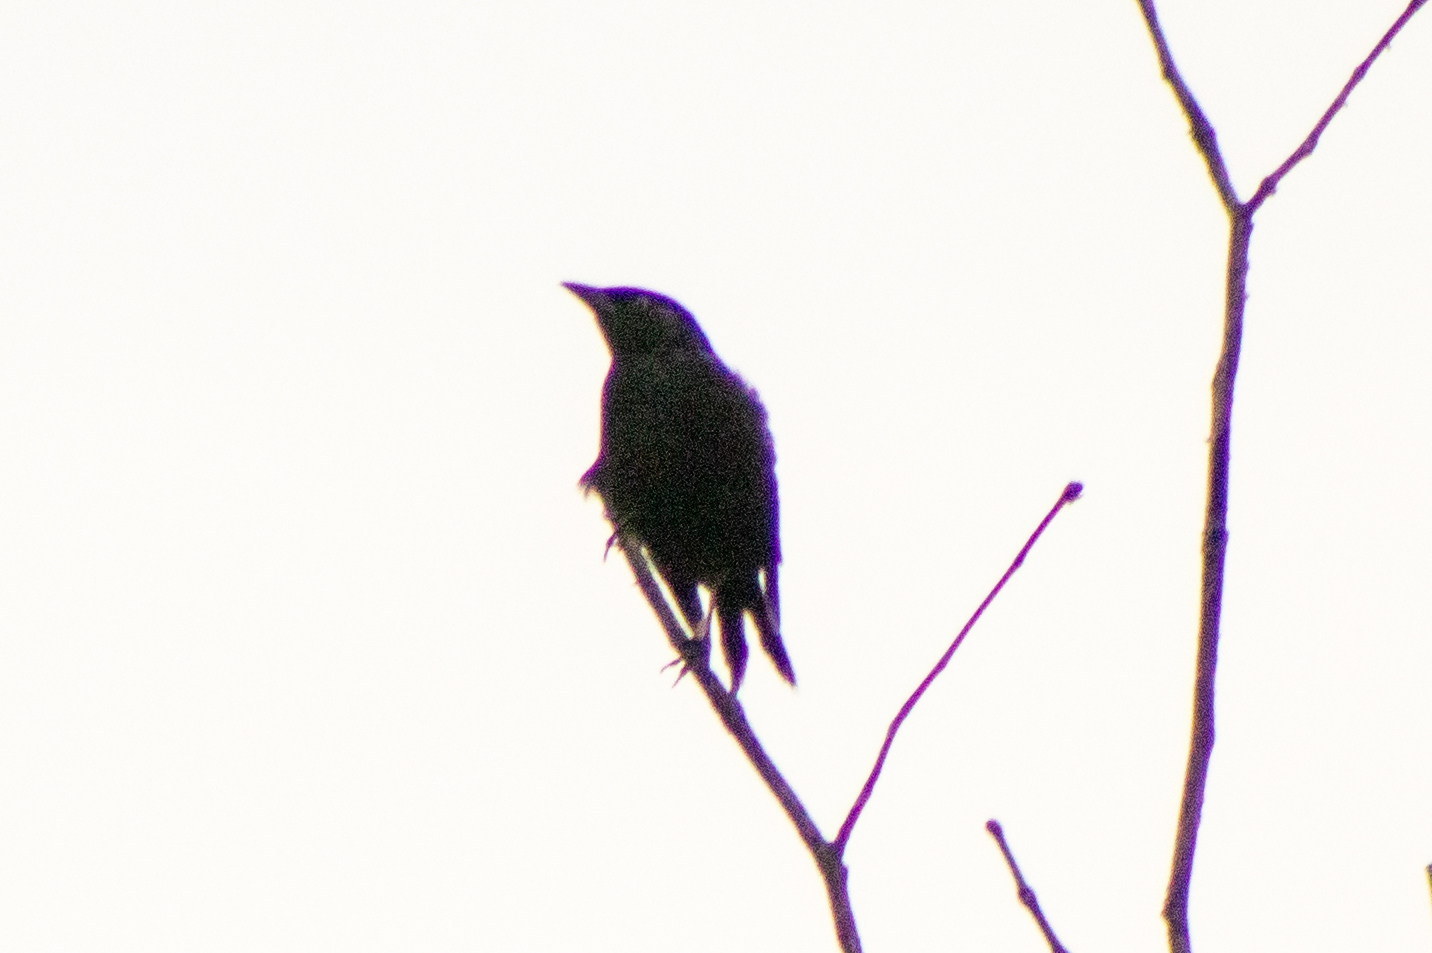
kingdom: Animalia
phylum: Chordata
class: Aves
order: Passeriformes
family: Icteridae
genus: Quiscalus
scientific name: Quiscalus
